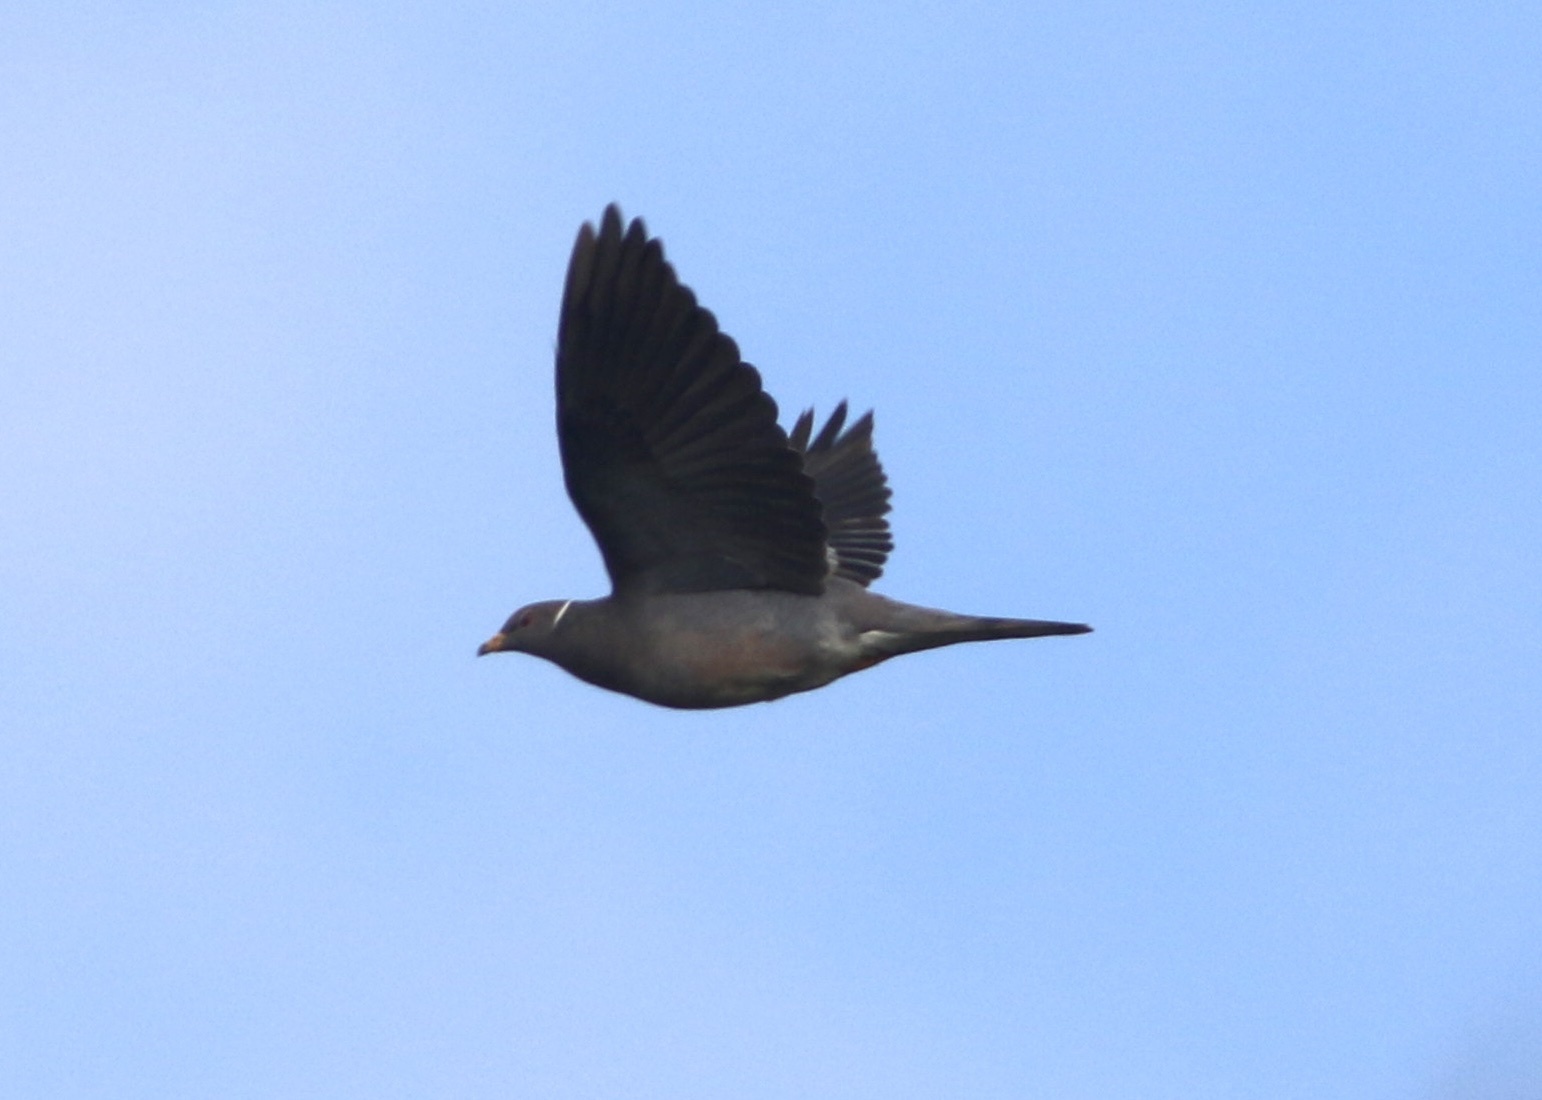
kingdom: Animalia
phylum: Chordata
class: Aves
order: Columbiformes
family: Columbidae
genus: Patagioenas
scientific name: Patagioenas fasciata
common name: Band-tailed pigeon
